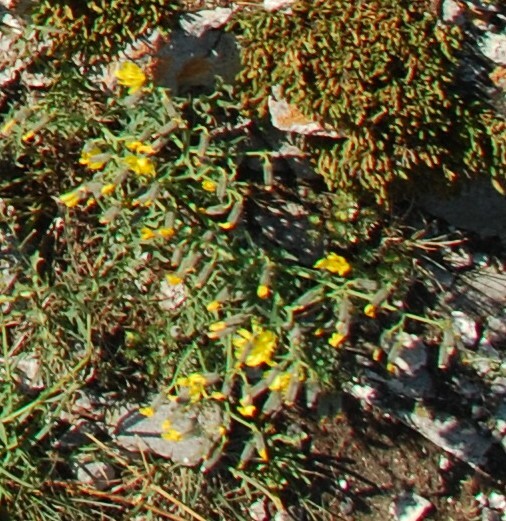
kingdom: Plantae
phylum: Tracheophyta
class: Magnoliopsida
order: Asterales
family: Asteraceae
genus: Crepidiastrum
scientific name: Crepidiastrum tenuifolium
